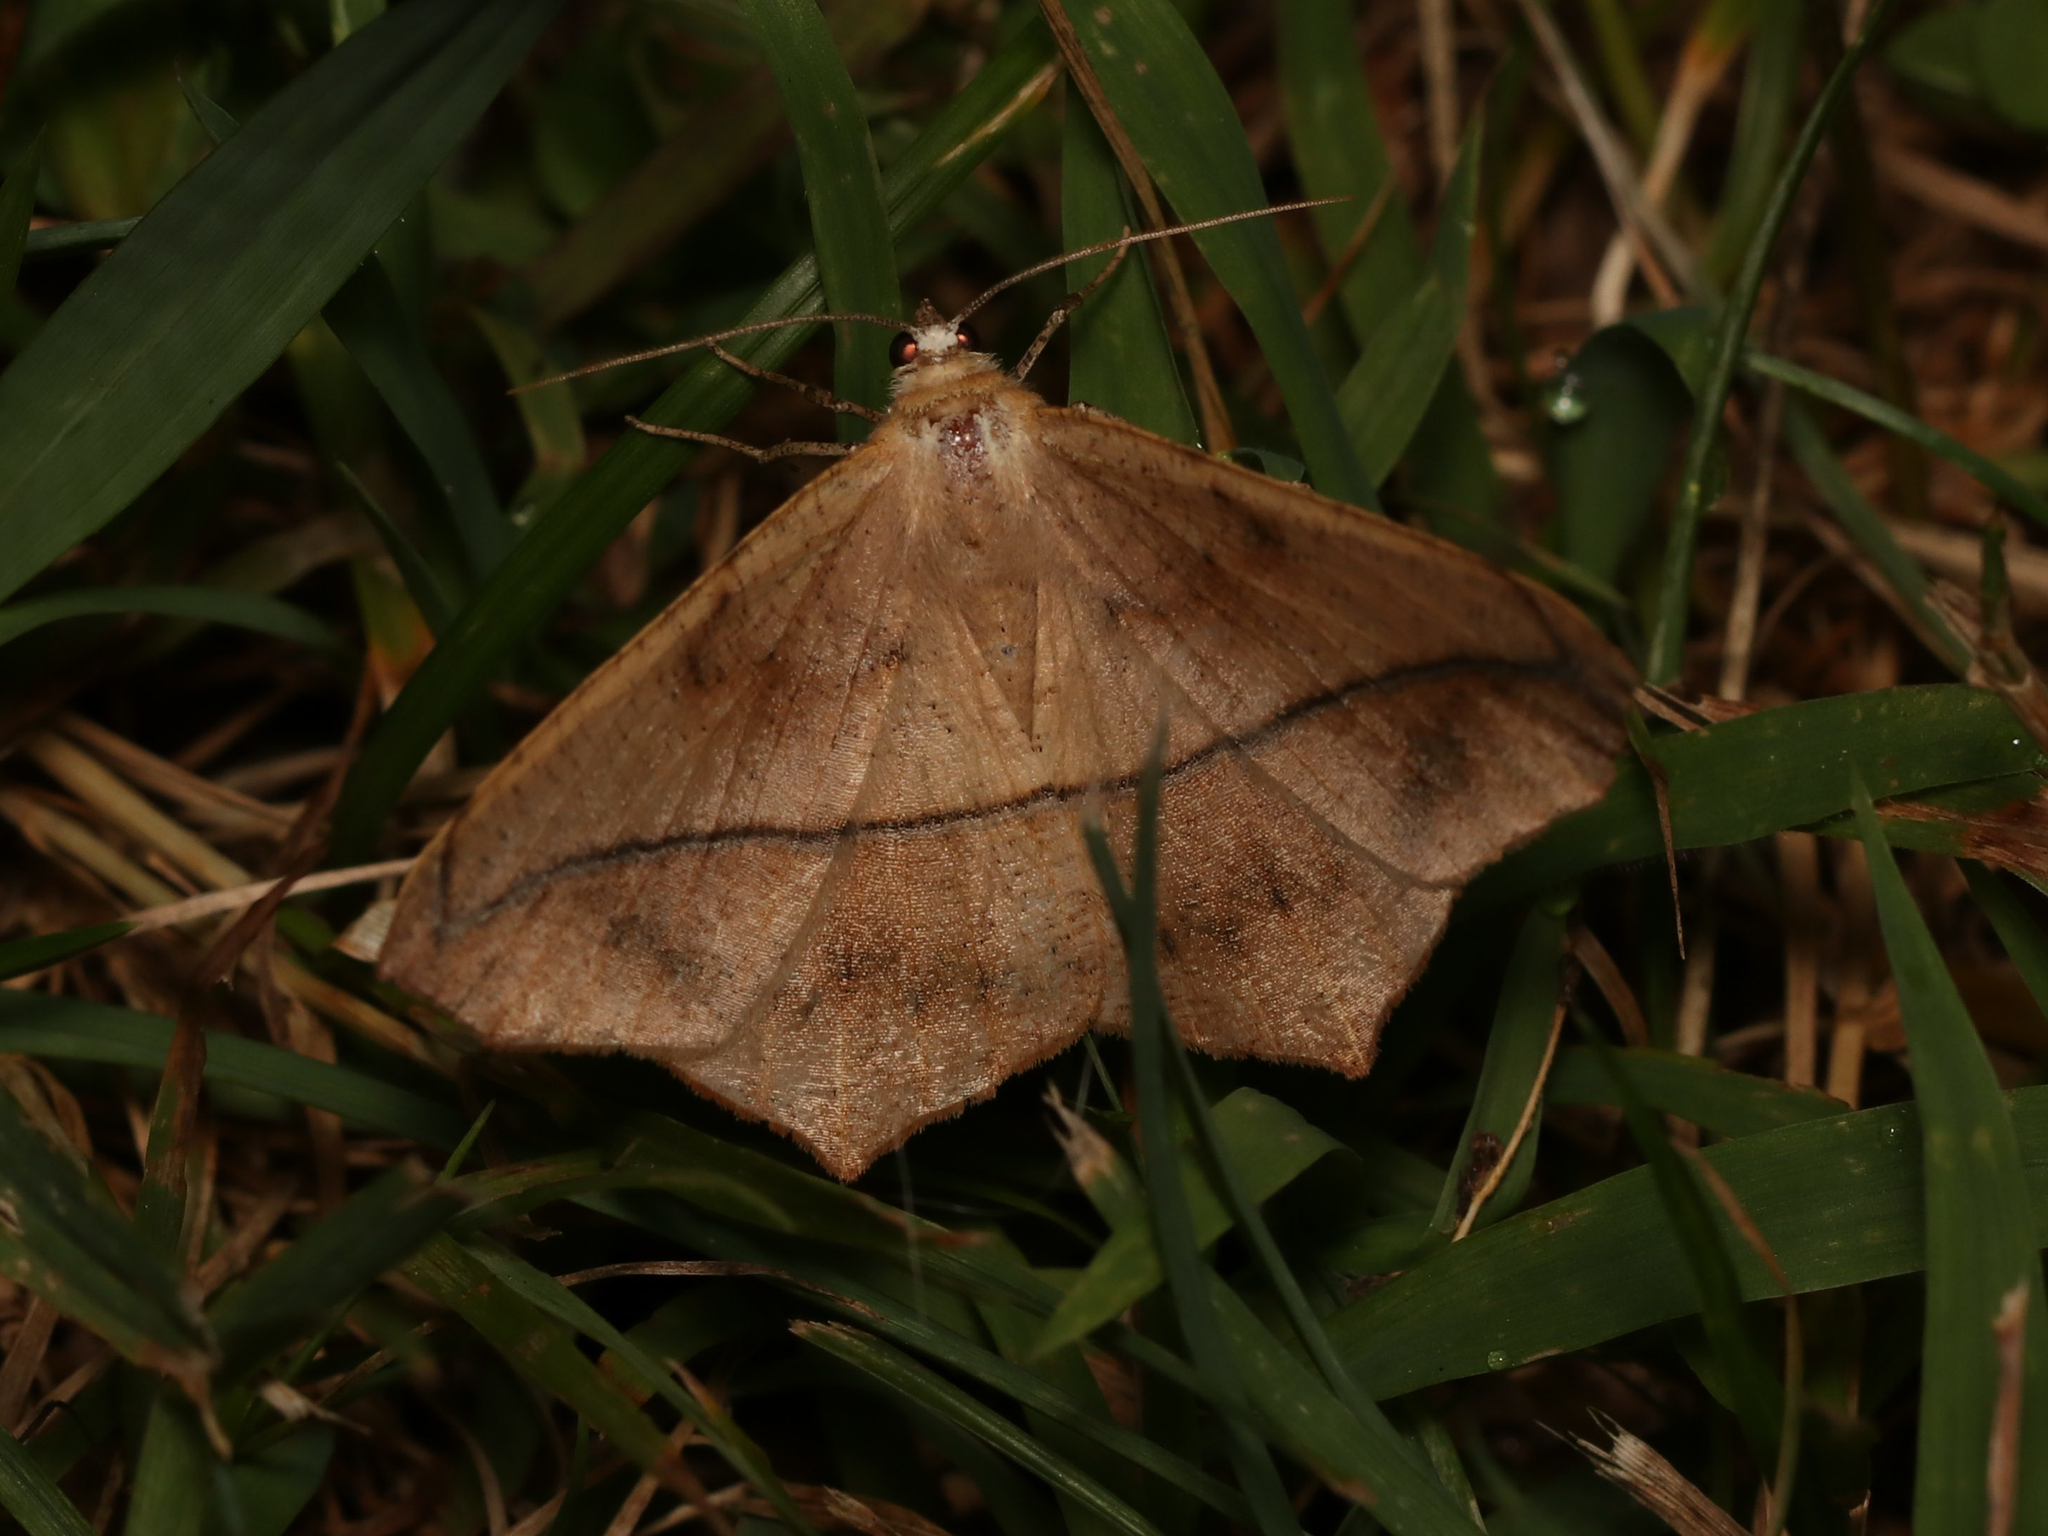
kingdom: Animalia
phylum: Arthropoda
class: Insecta
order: Lepidoptera
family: Geometridae
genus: Prochoerodes
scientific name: Prochoerodes lineola
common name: Large maple spanworm
